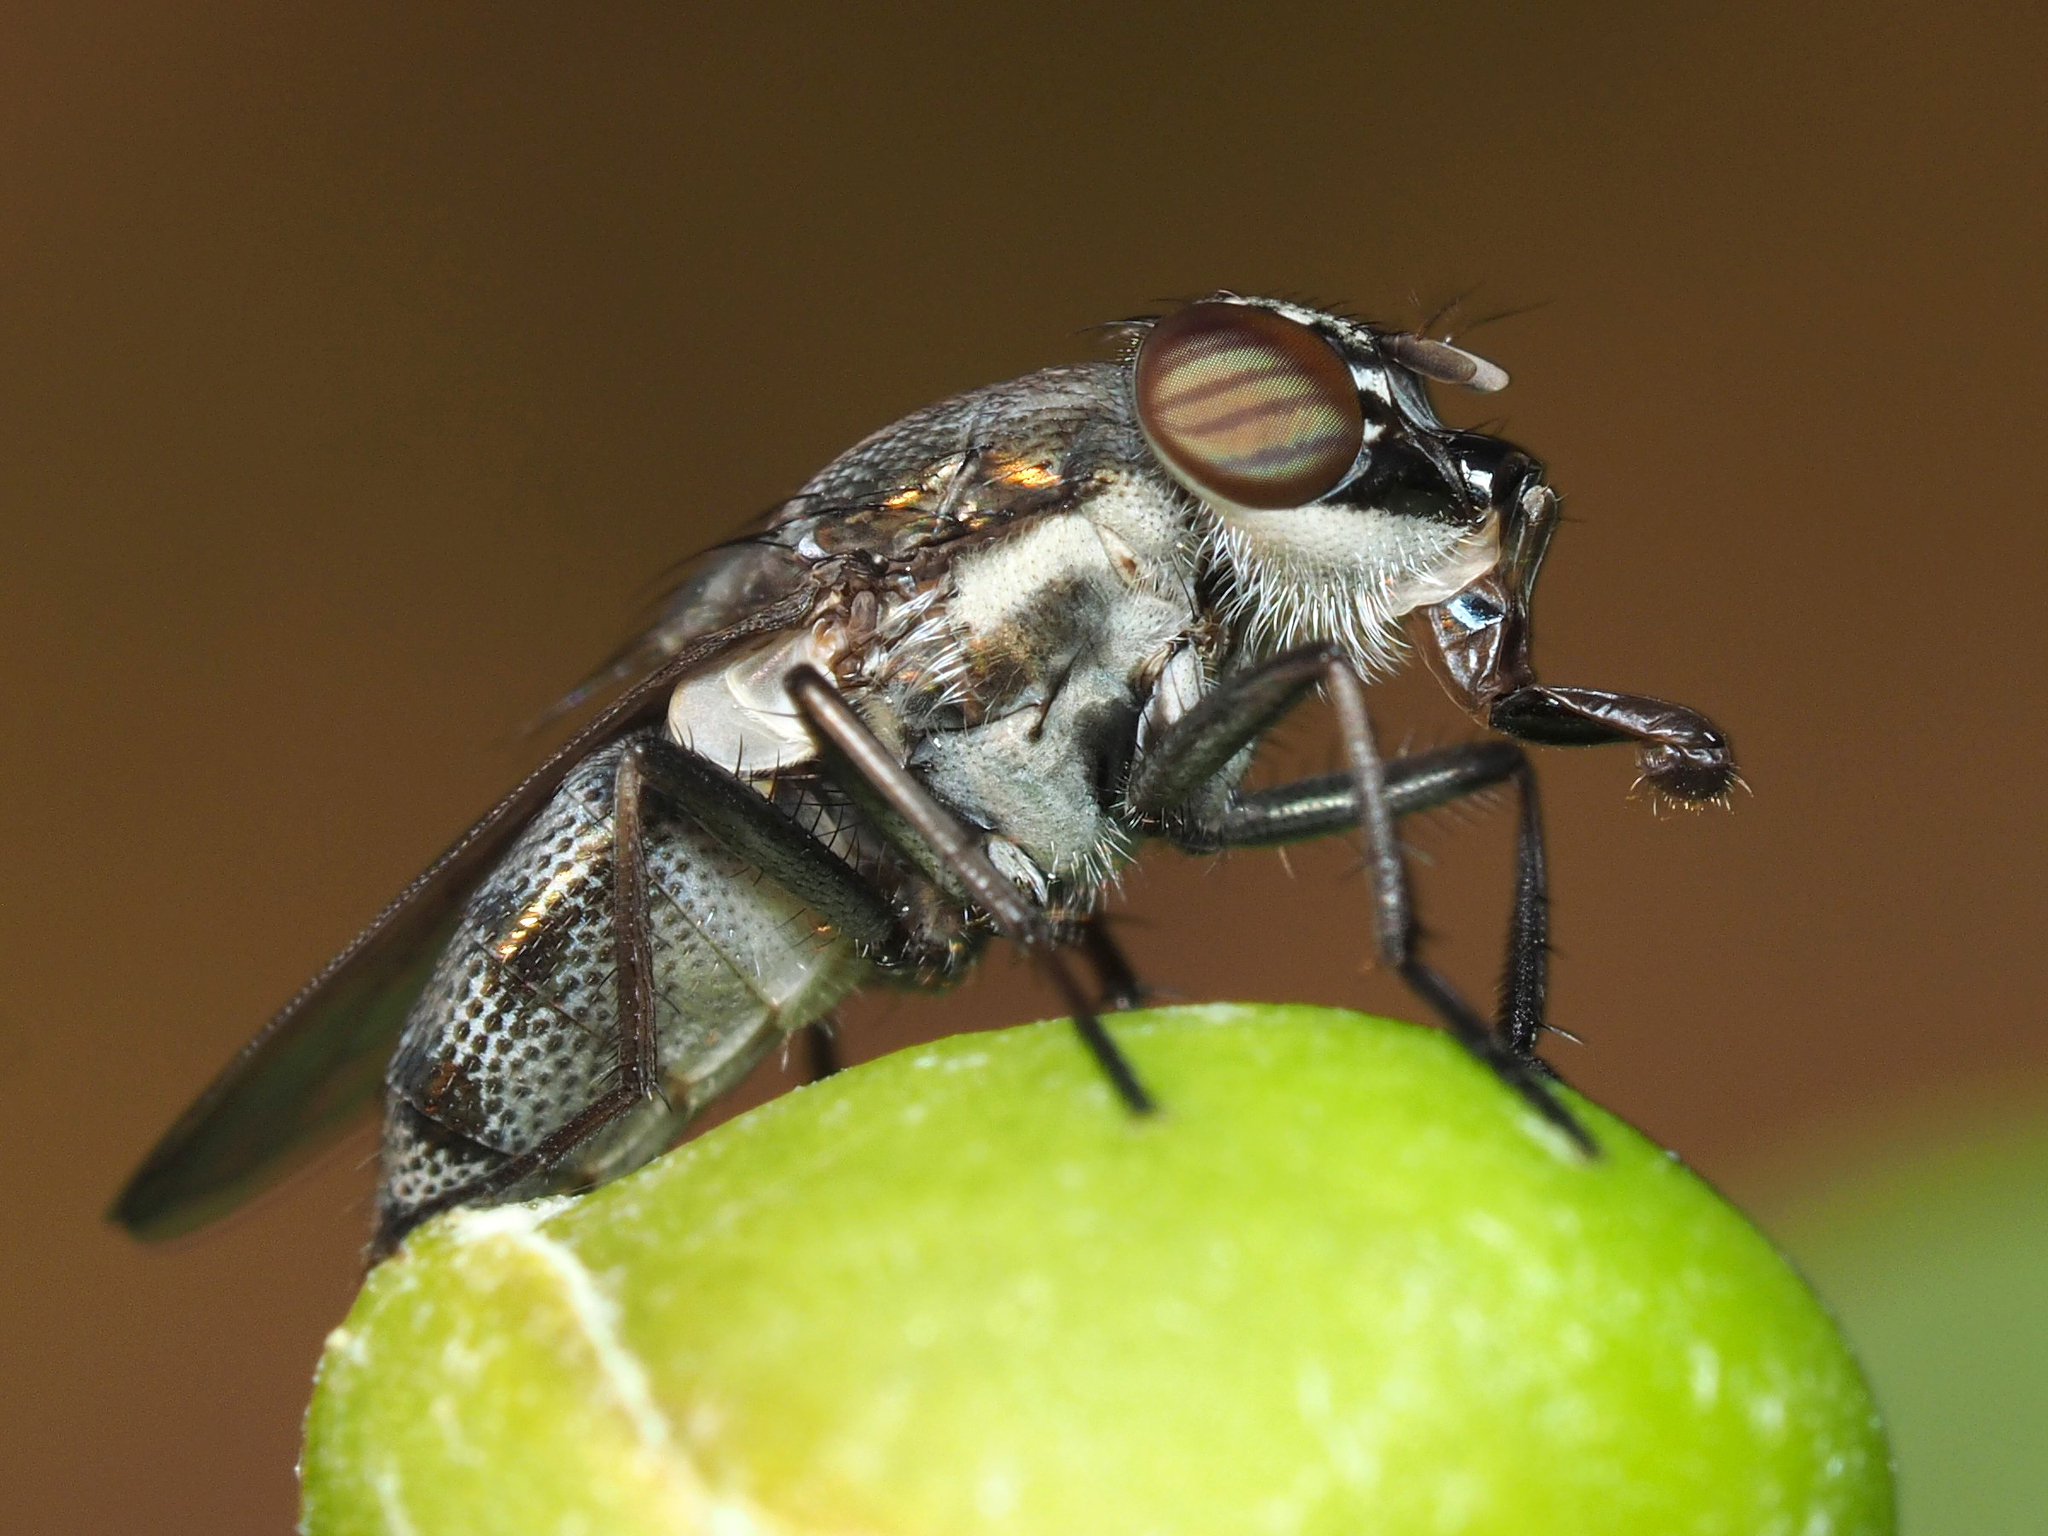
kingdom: Animalia
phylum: Arthropoda
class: Insecta
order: Diptera
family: Calliphoridae
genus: Stomorhina
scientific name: Stomorhina lunata
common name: Locust blowfly
